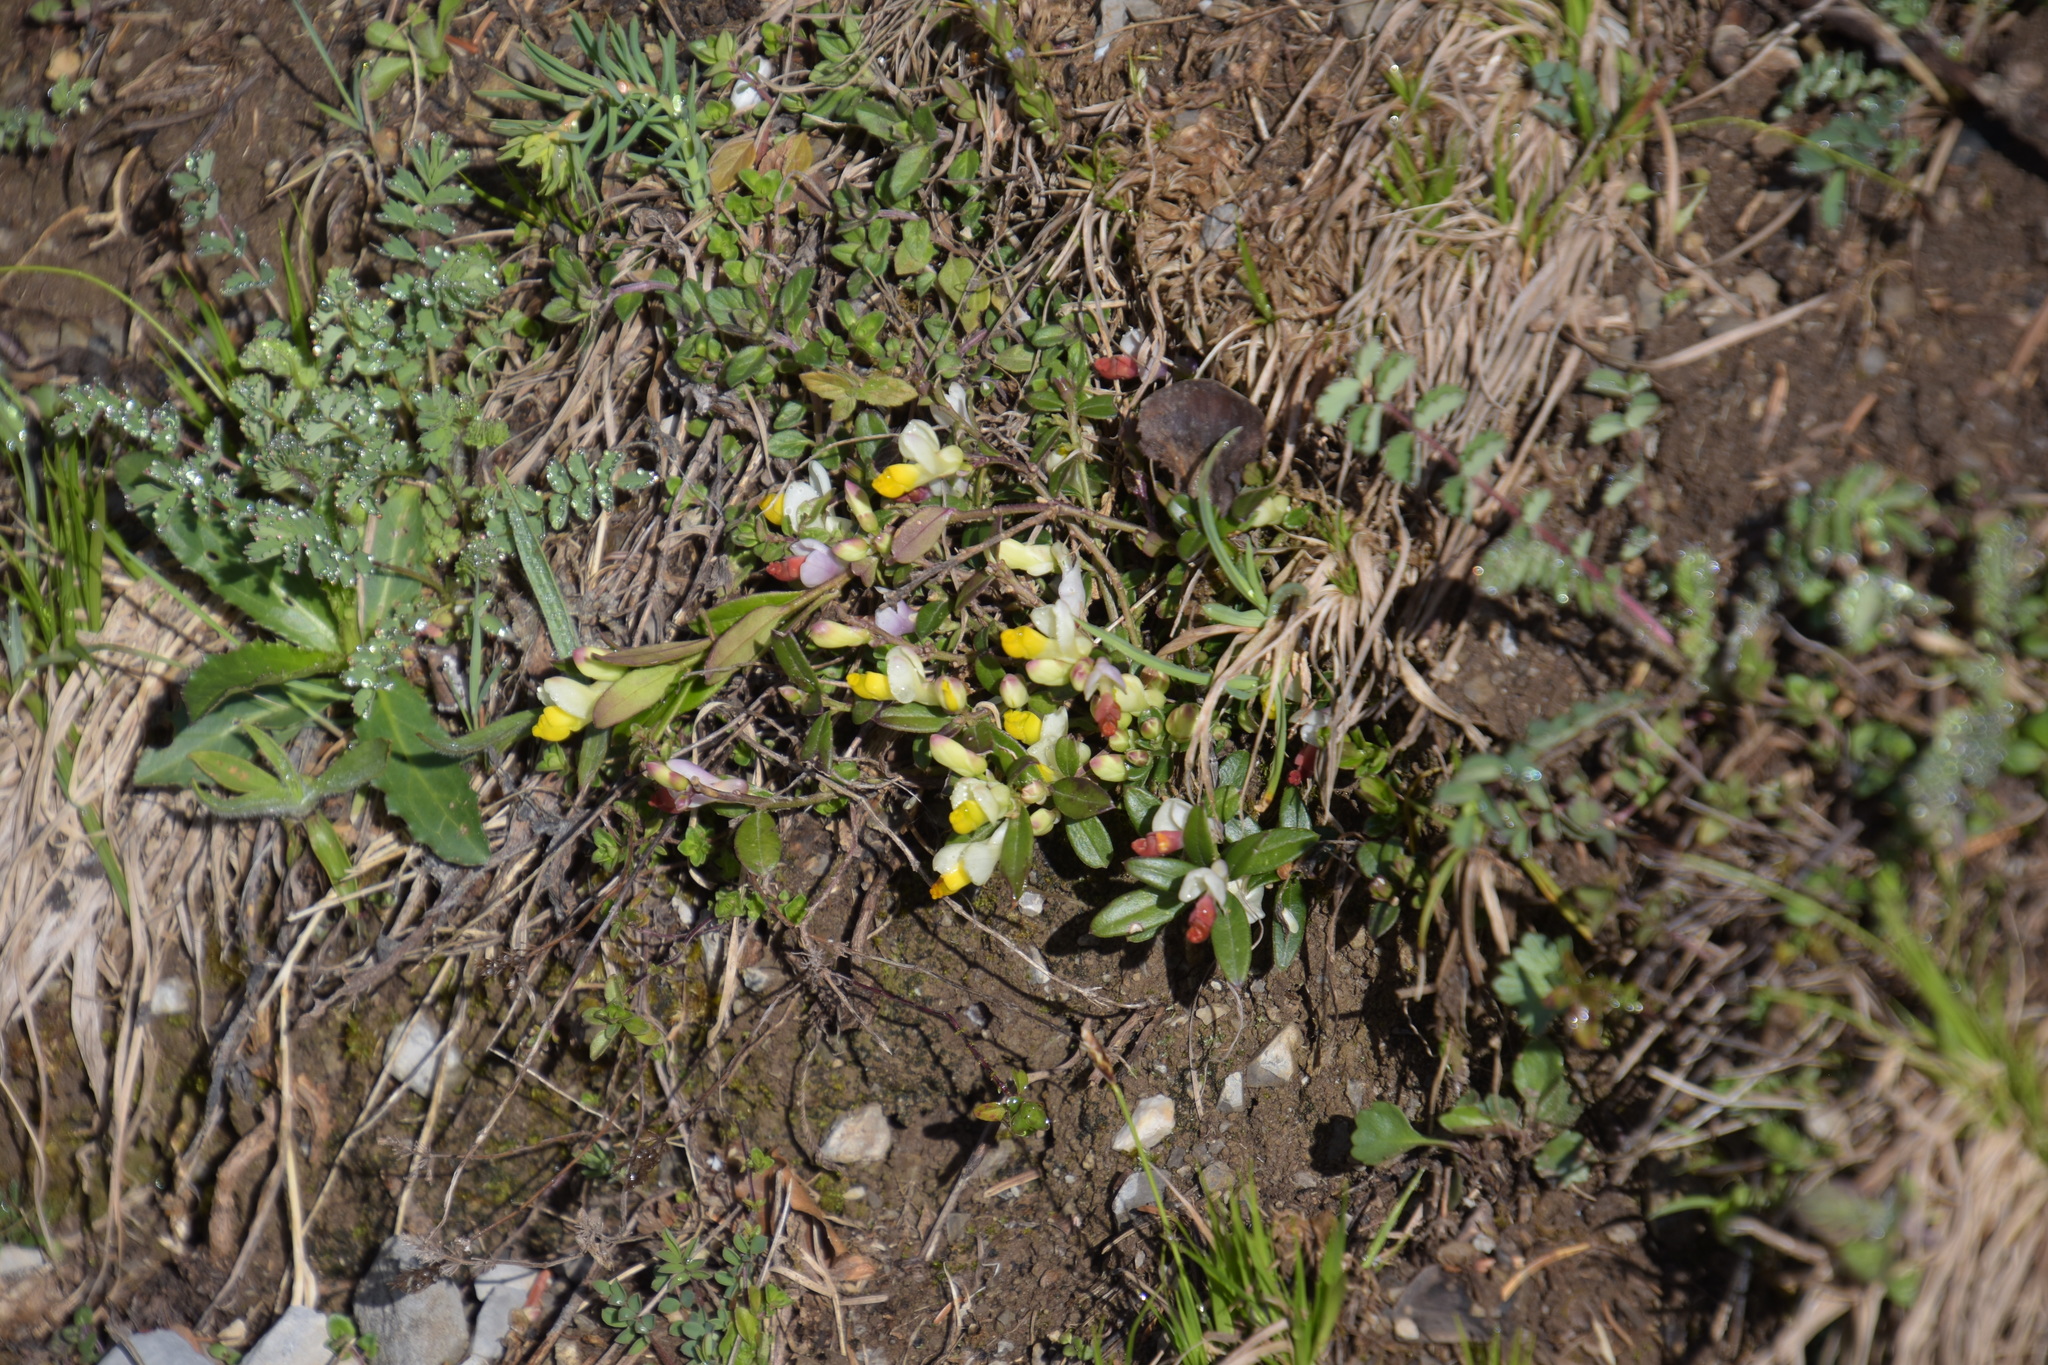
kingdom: Plantae
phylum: Tracheophyta
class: Magnoliopsida
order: Fabales
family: Polygalaceae
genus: Polygaloides
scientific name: Polygaloides chamaebuxus
